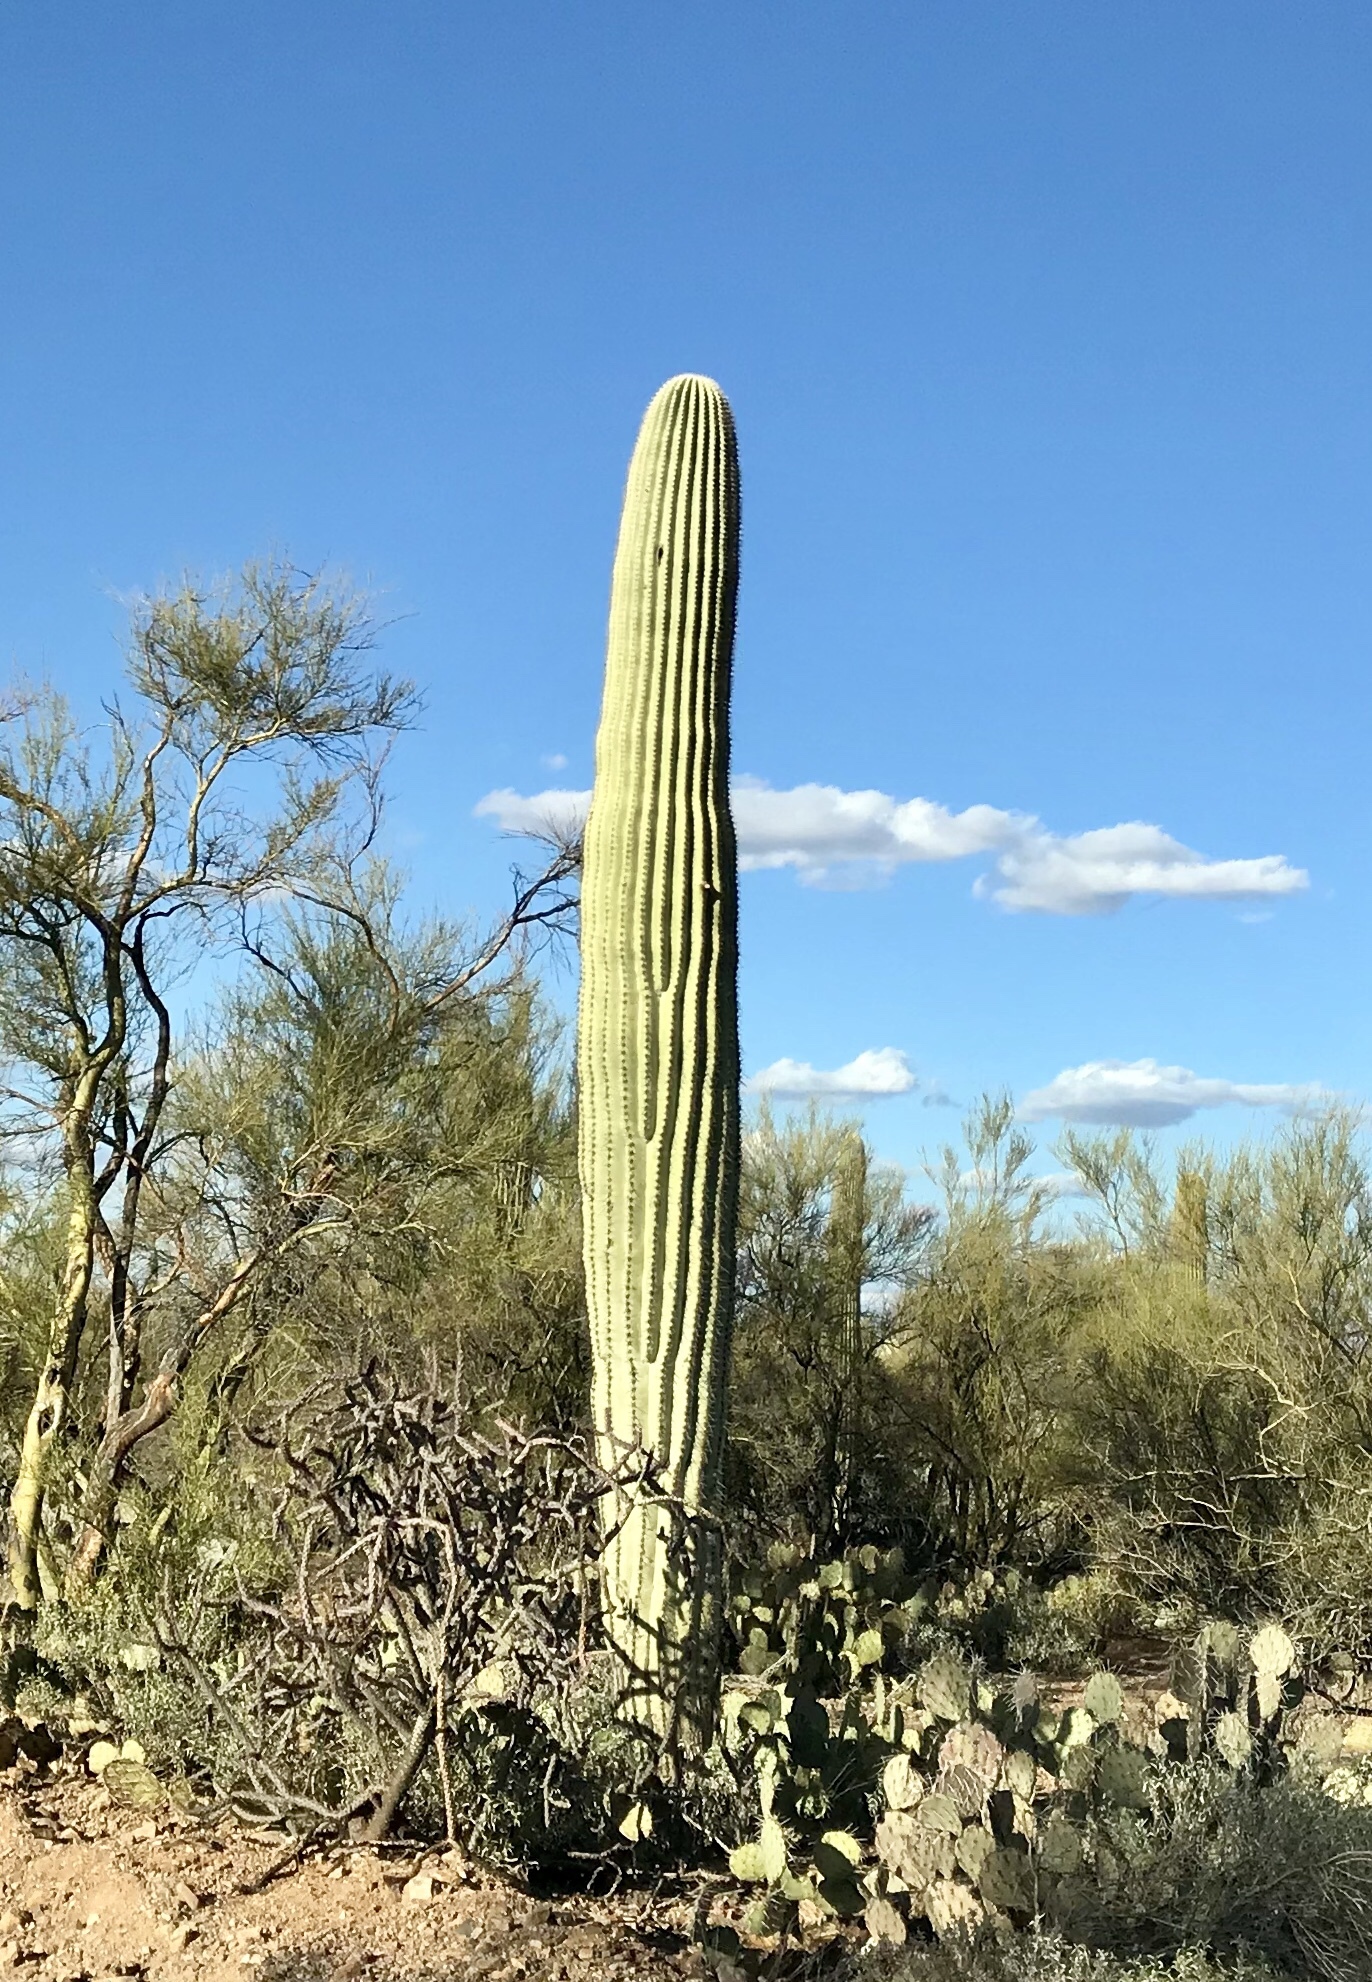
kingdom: Plantae
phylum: Tracheophyta
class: Magnoliopsida
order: Caryophyllales
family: Cactaceae
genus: Carnegiea
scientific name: Carnegiea gigantea
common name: Saguaro
